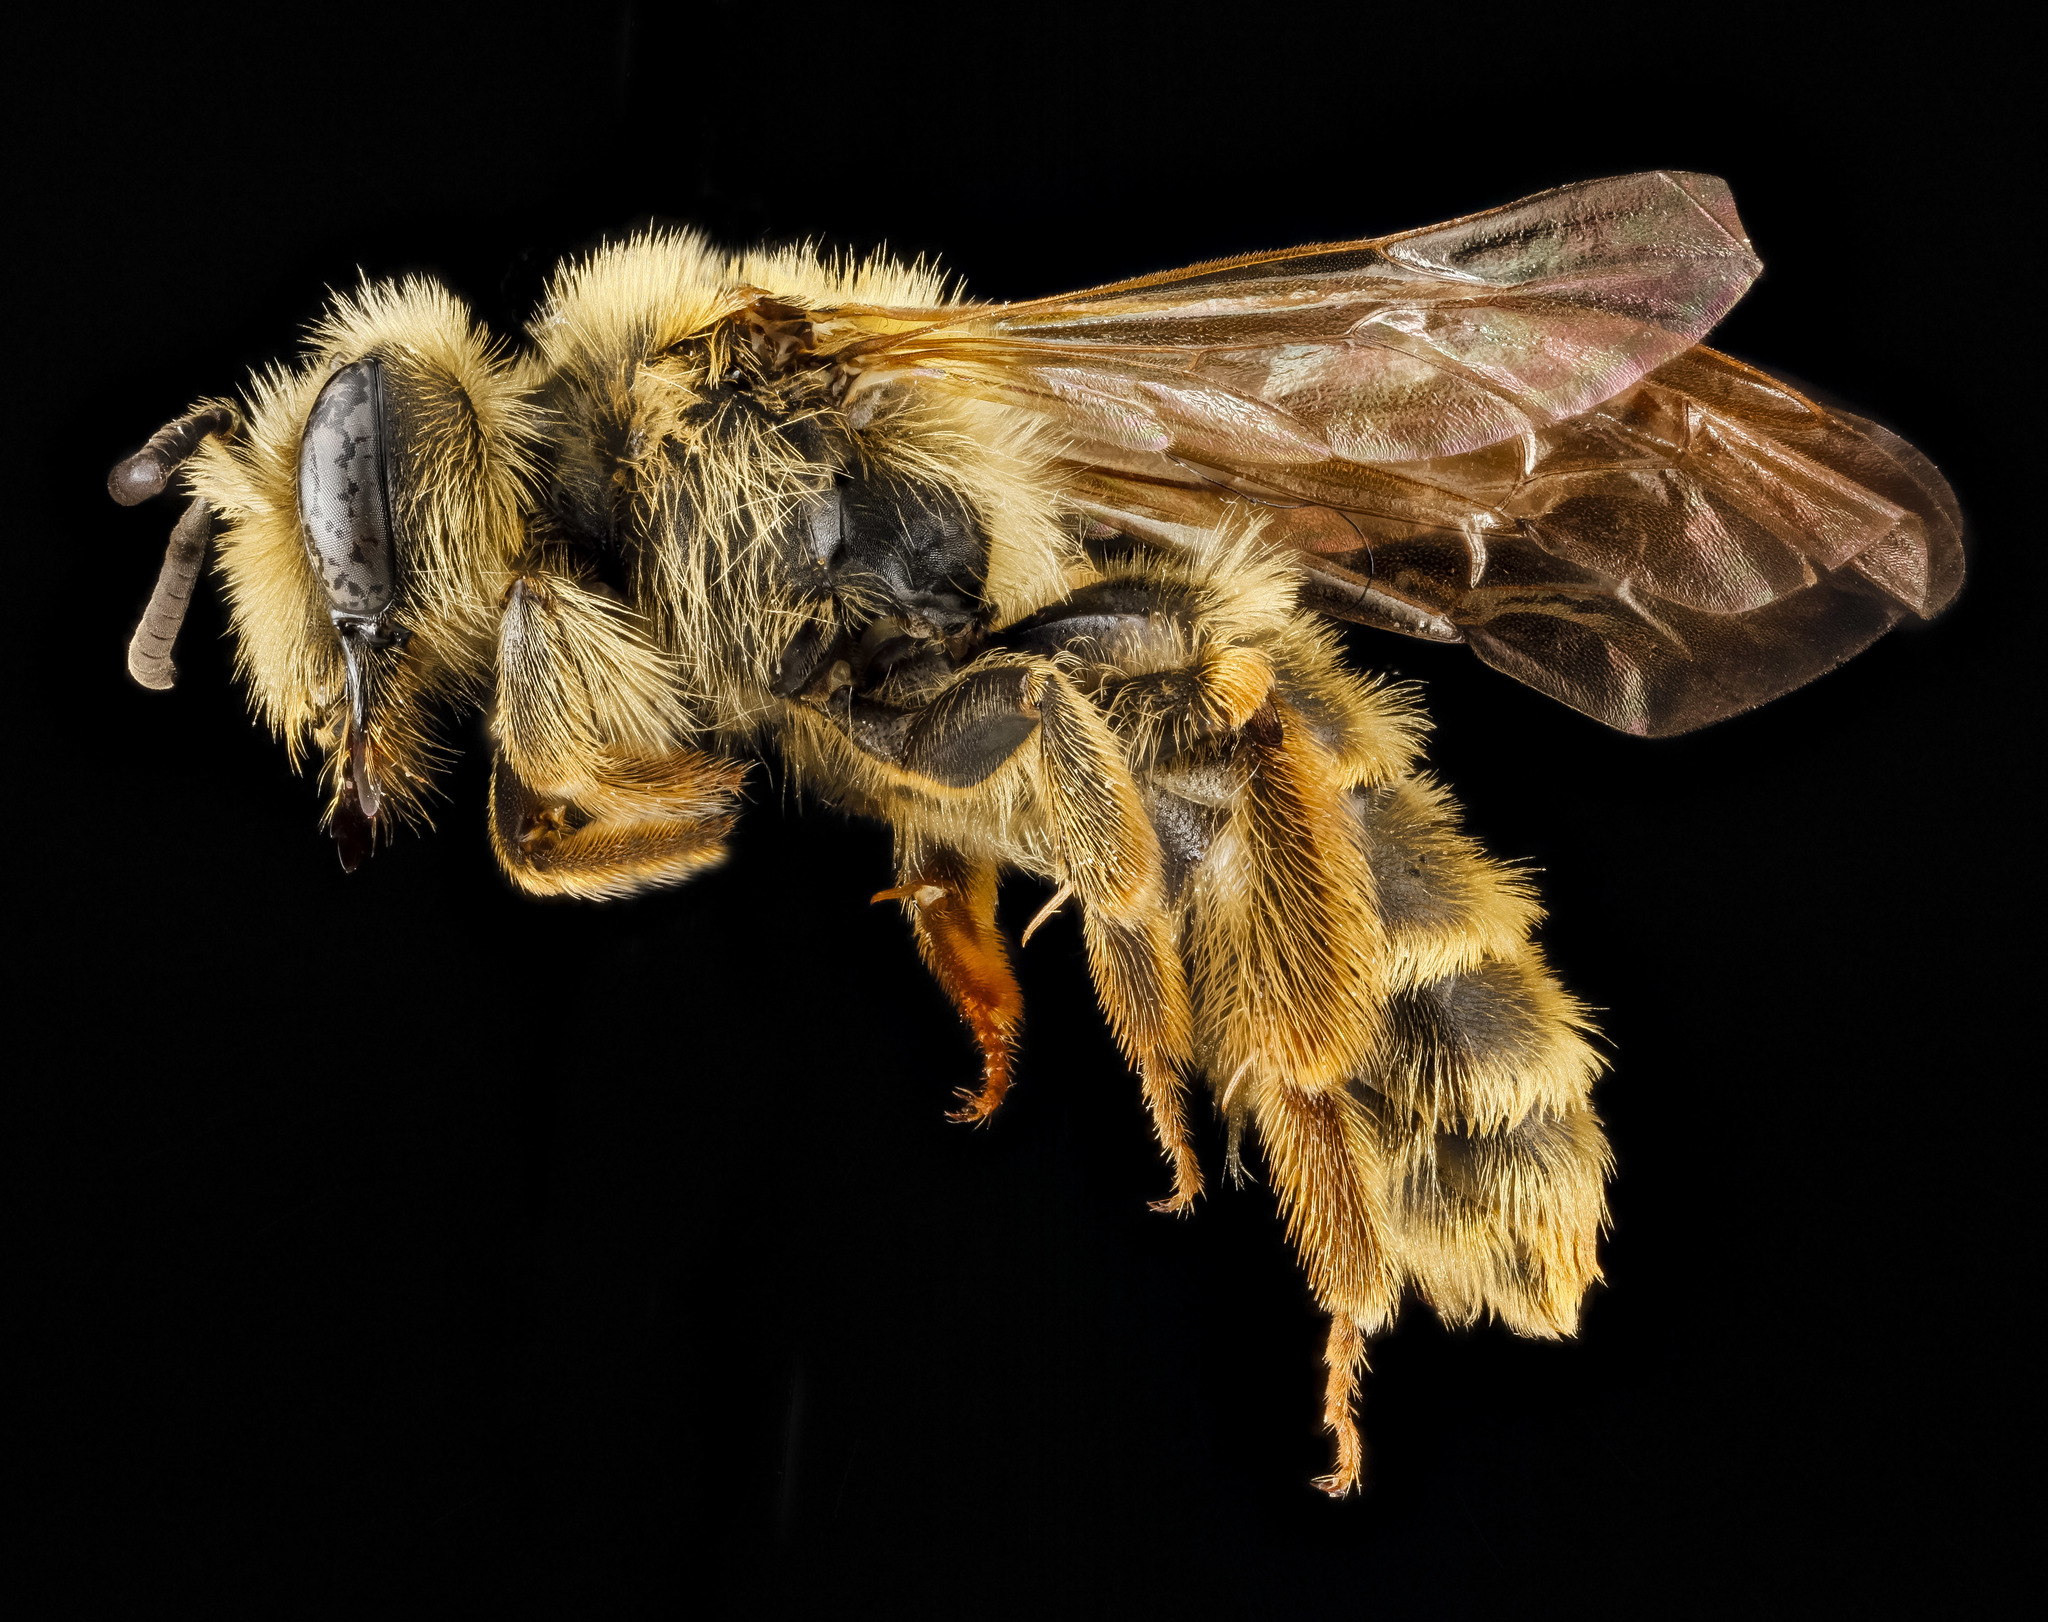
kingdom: Animalia
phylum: Arthropoda
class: Insecta
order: Hymenoptera
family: Andrenidae
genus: Andrena
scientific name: Andrena astragali
